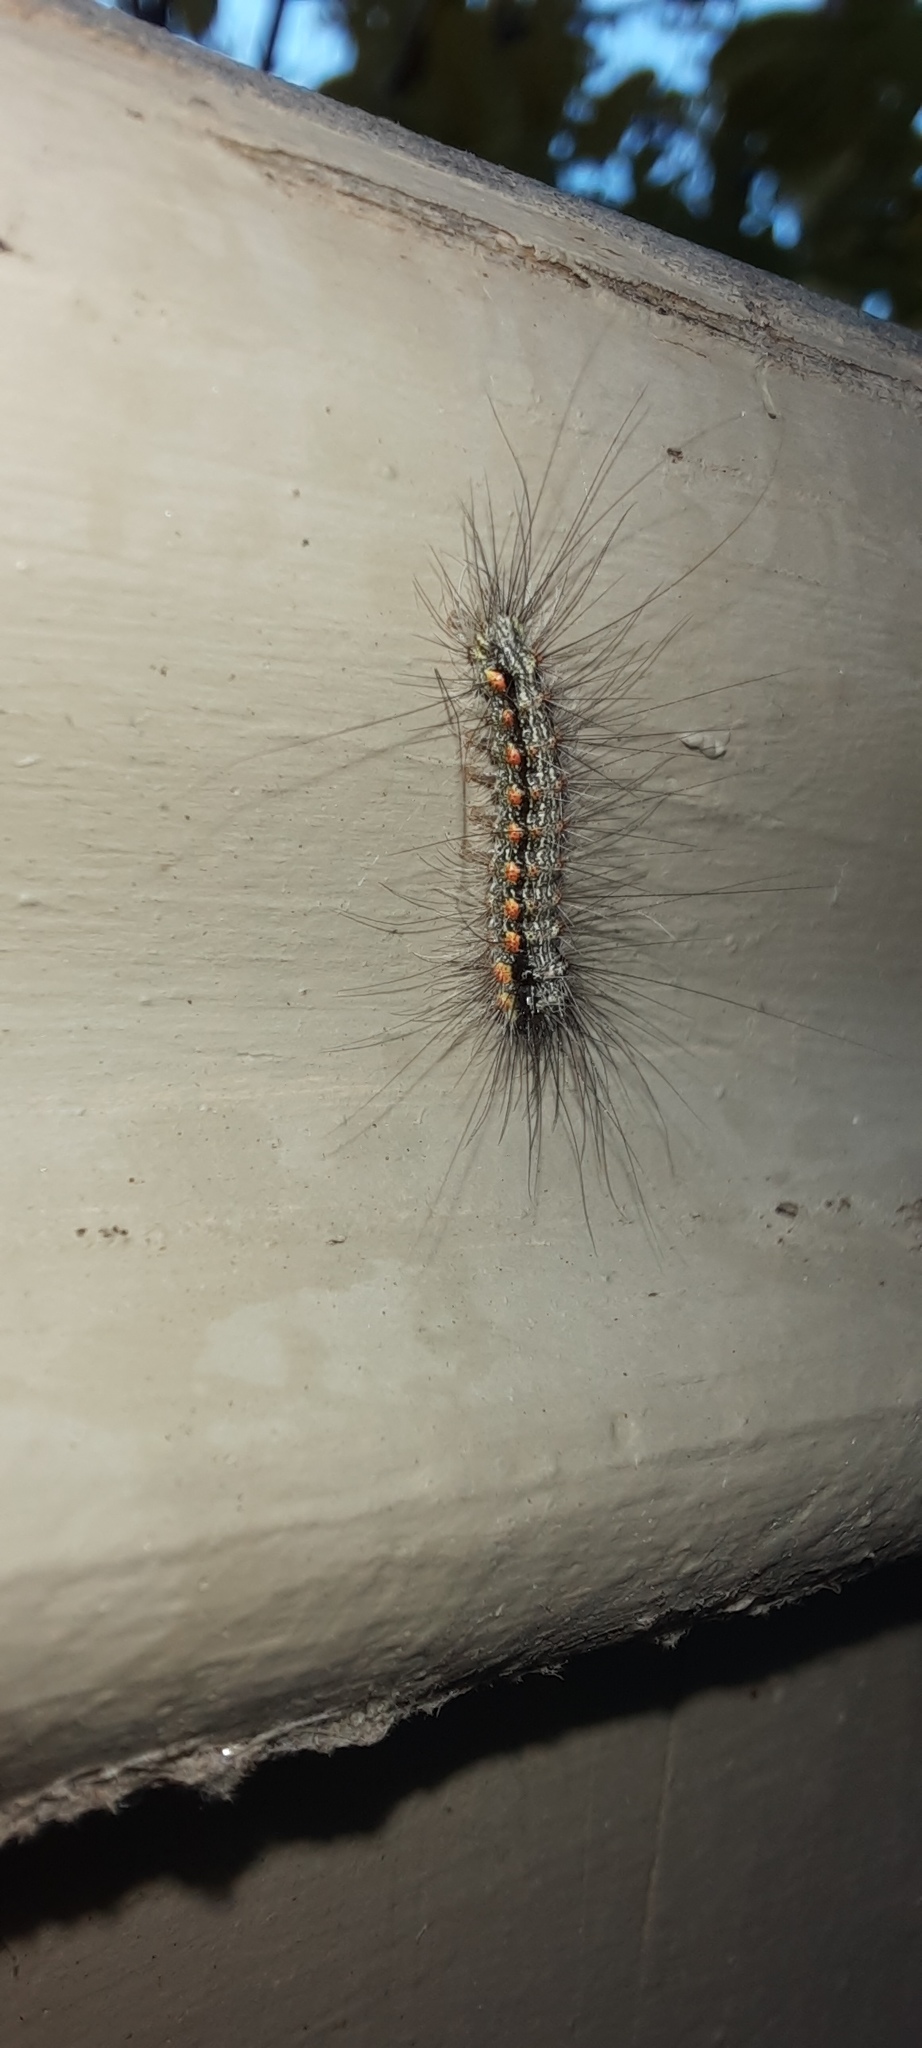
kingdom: Animalia
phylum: Arthropoda
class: Insecta
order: Lepidoptera
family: Erebidae
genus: Anestia
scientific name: Anestia
